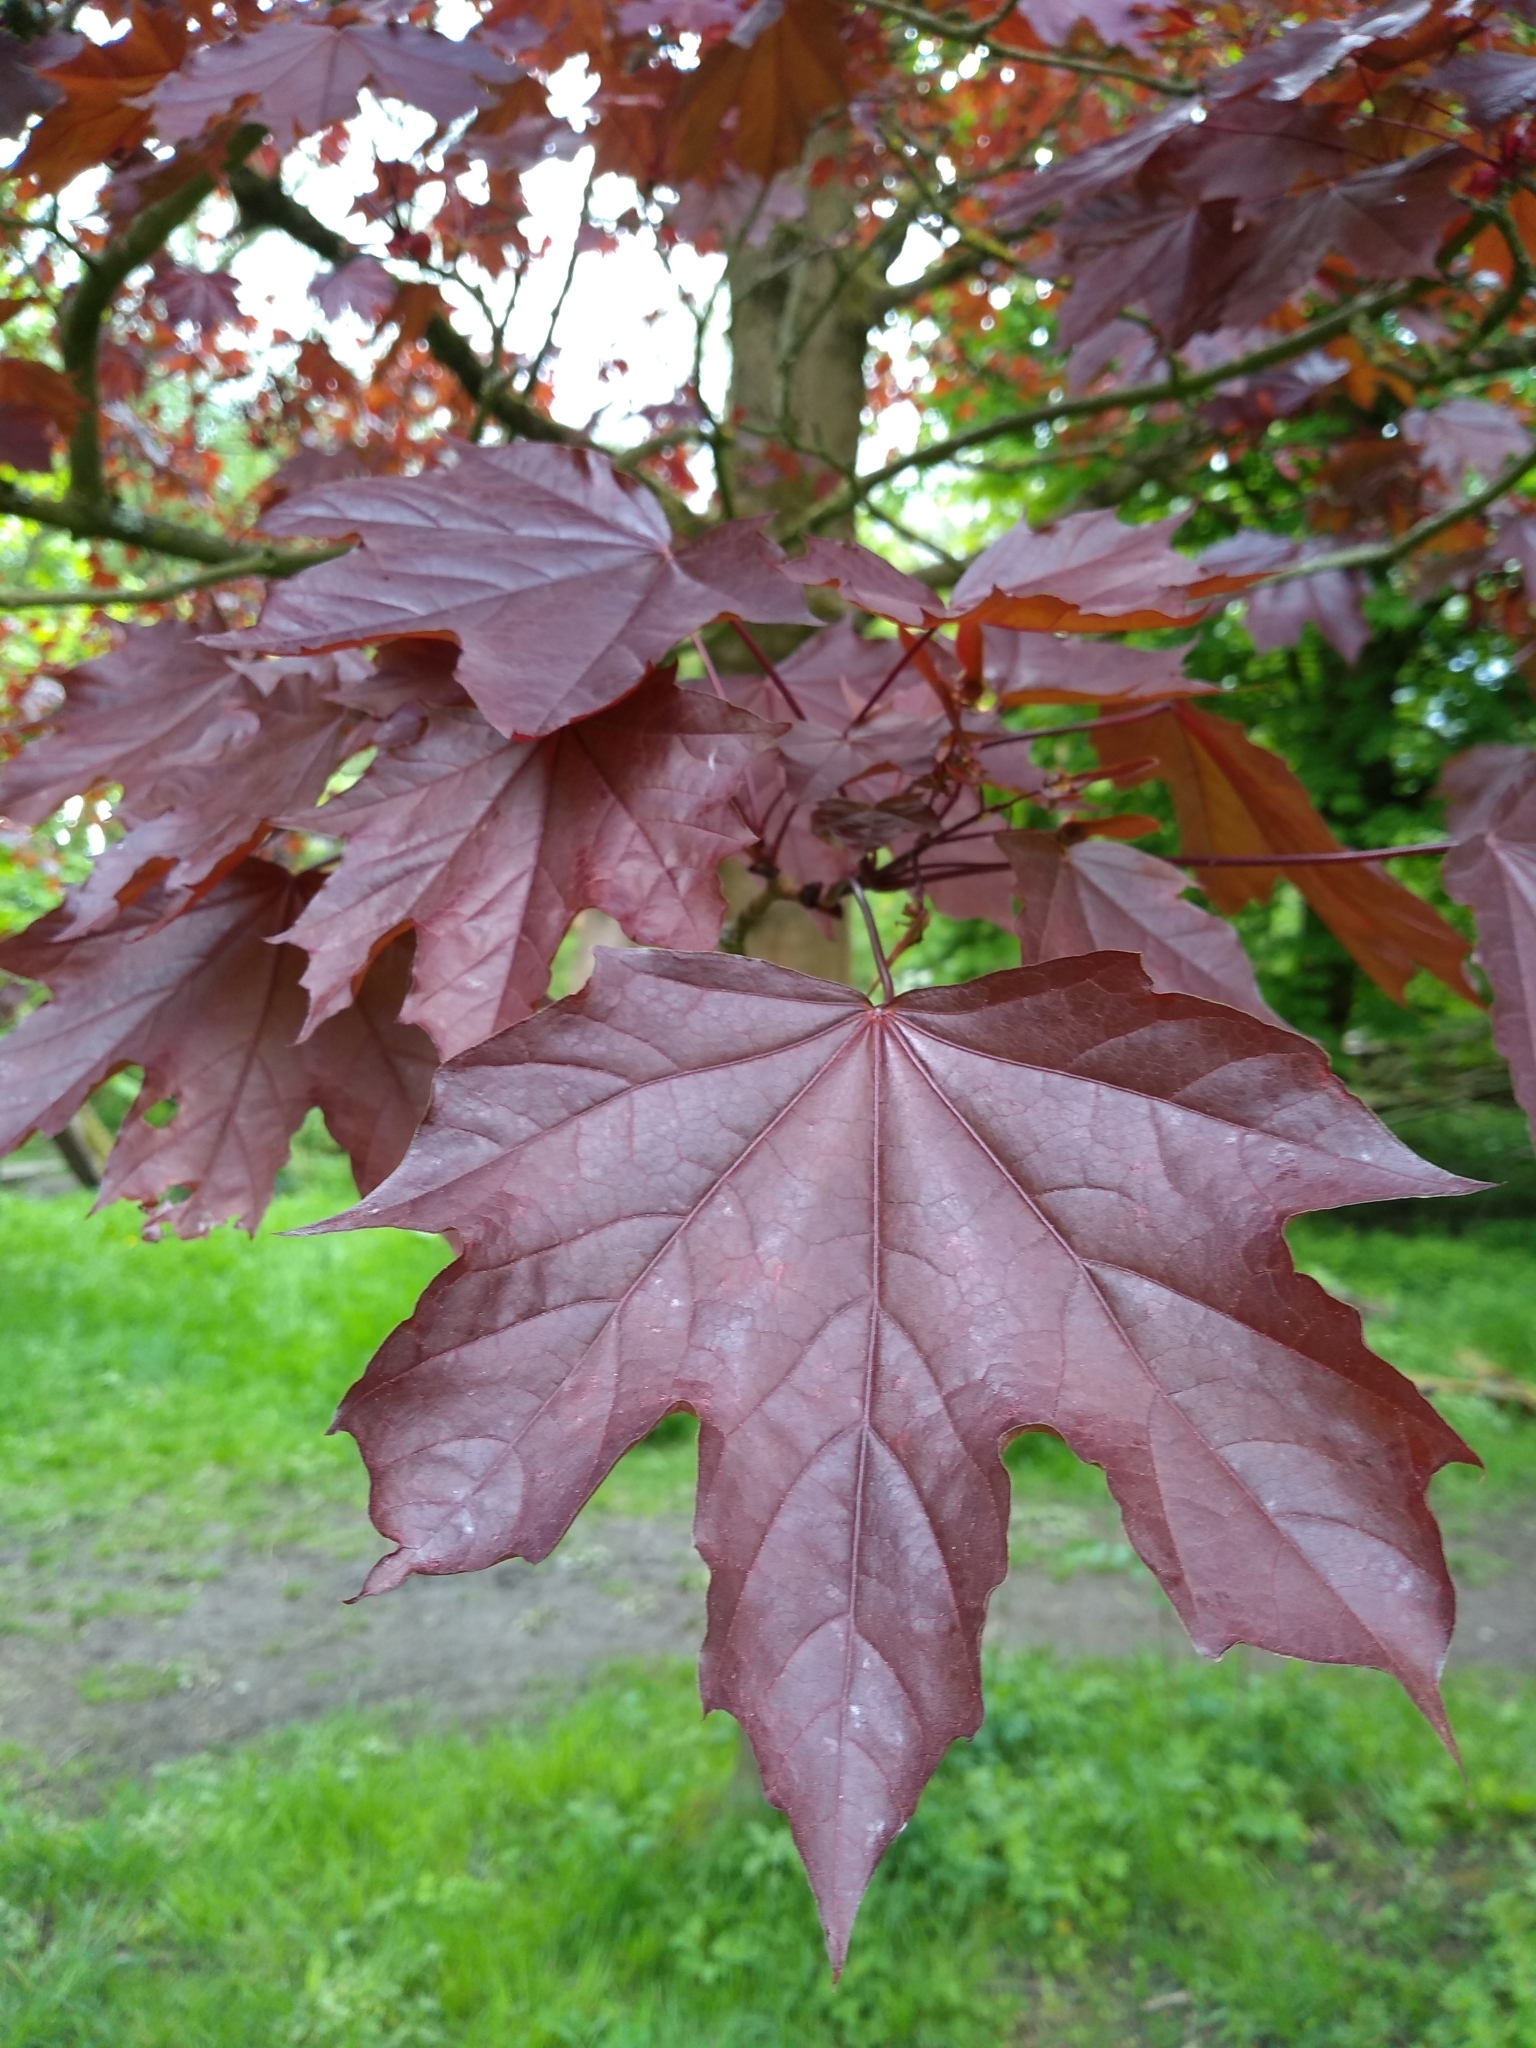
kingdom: Plantae
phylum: Tracheophyta
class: Magnoliopsida
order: Sapindales
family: Sapindaceae
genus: Acer
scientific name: Acer platanoides
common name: Norway maple
